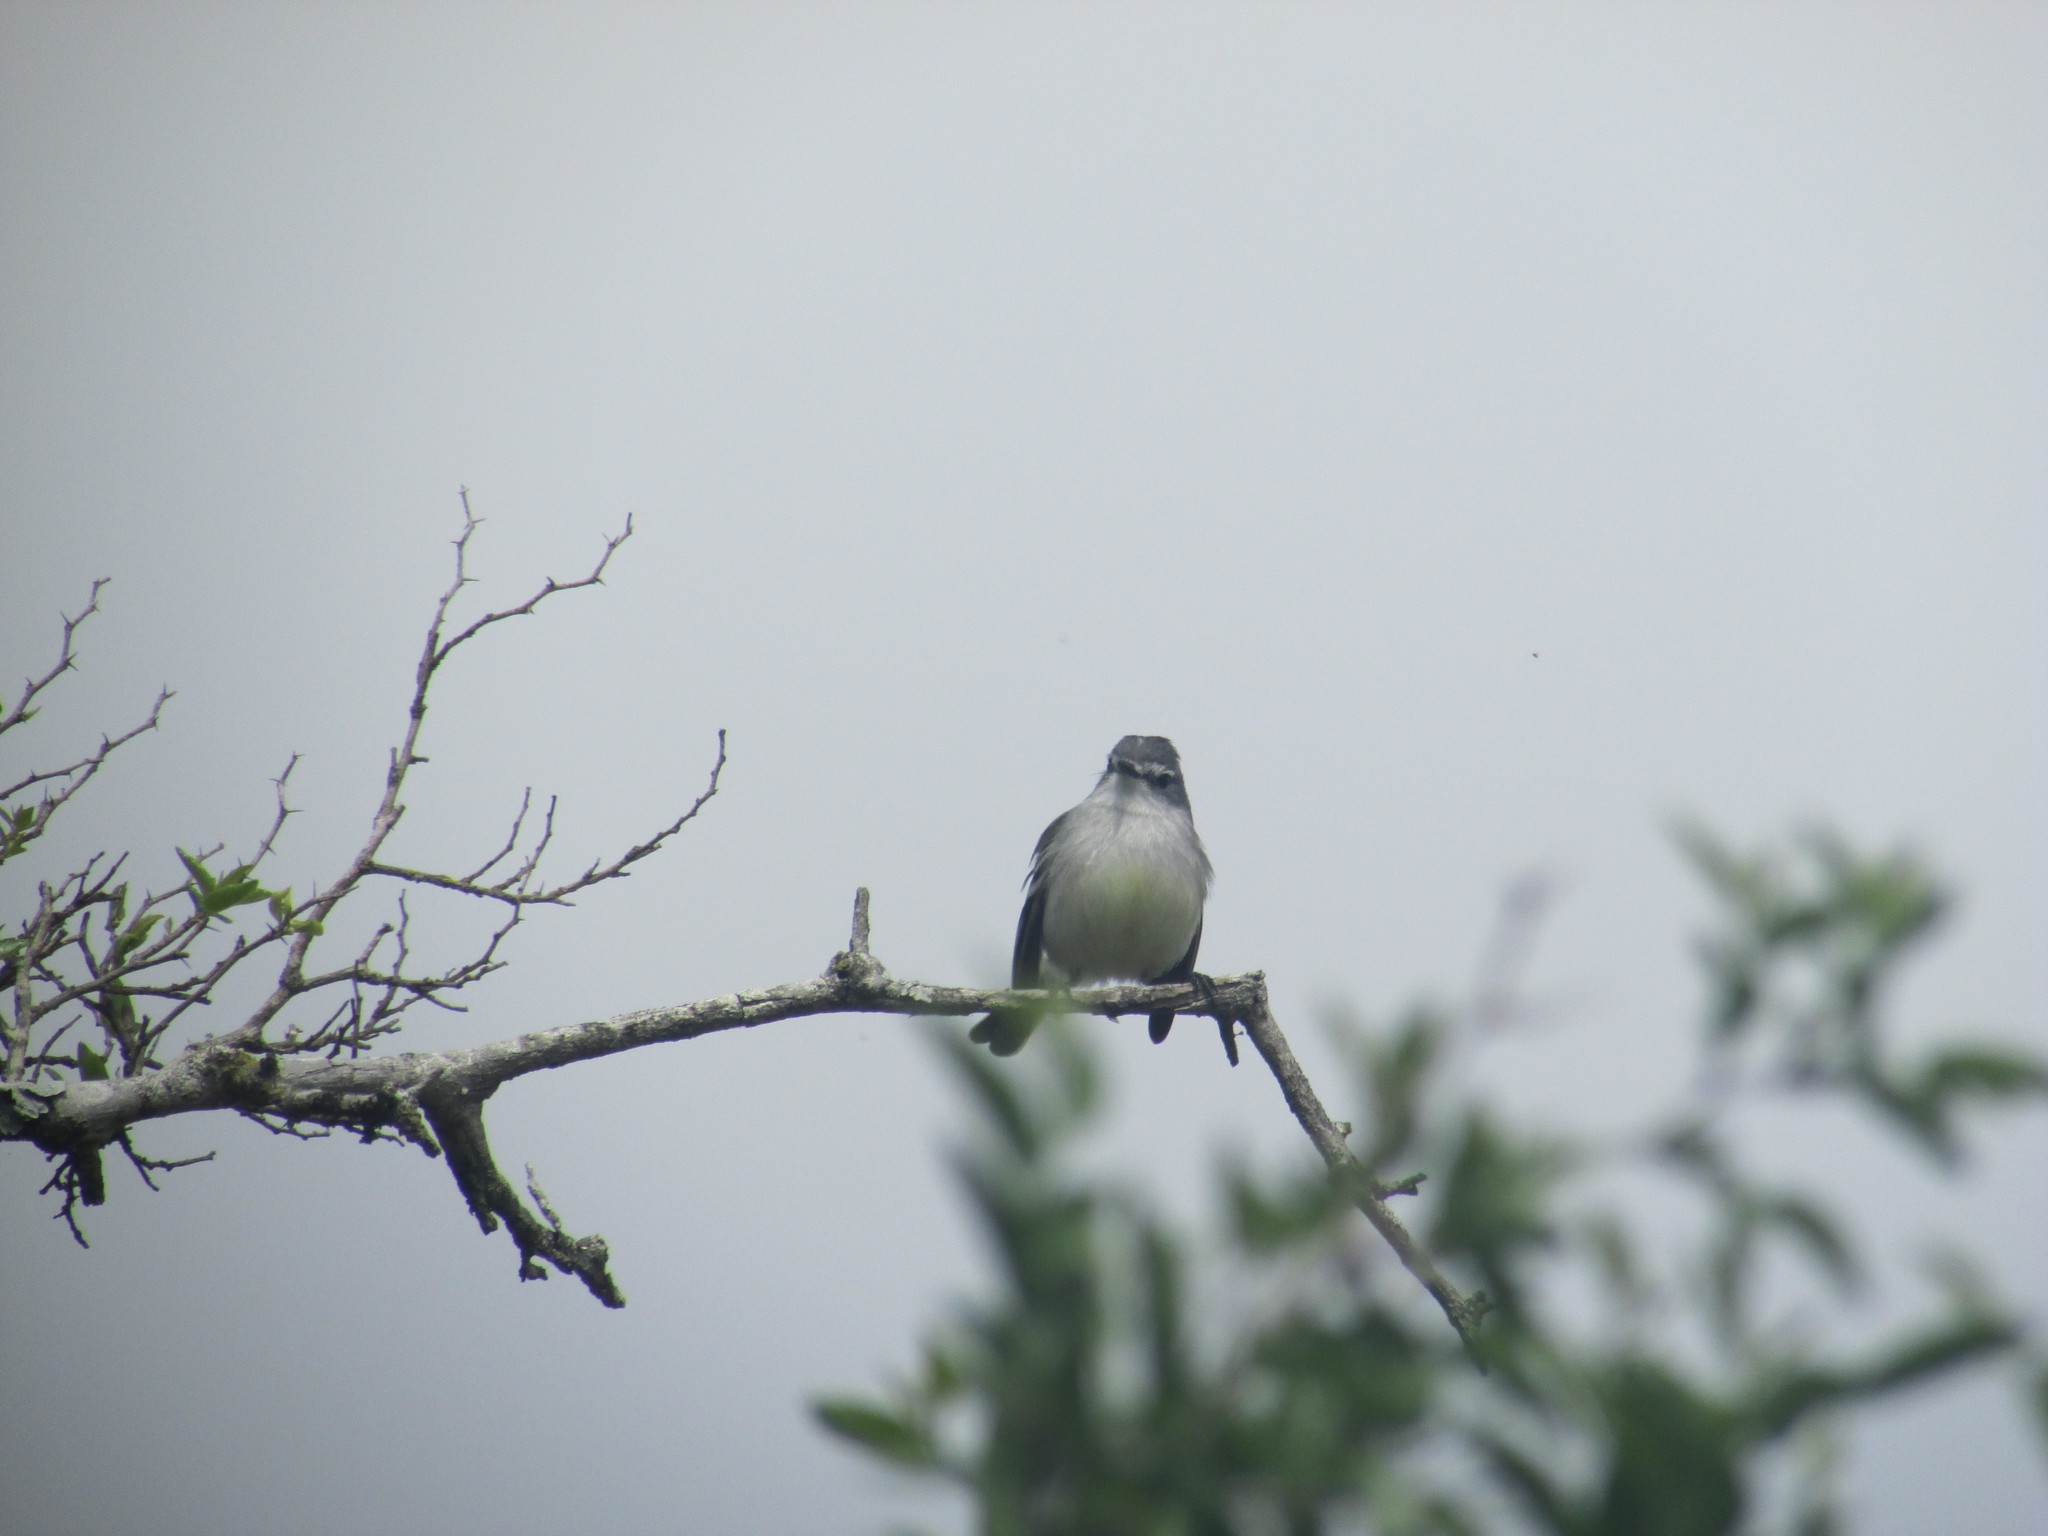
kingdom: Animalia
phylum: Chordata
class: Aves
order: Passeriformes
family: Tyrannidae
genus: Serpophaga
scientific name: Serpophaga subcristata
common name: White-crested tyrannulet
